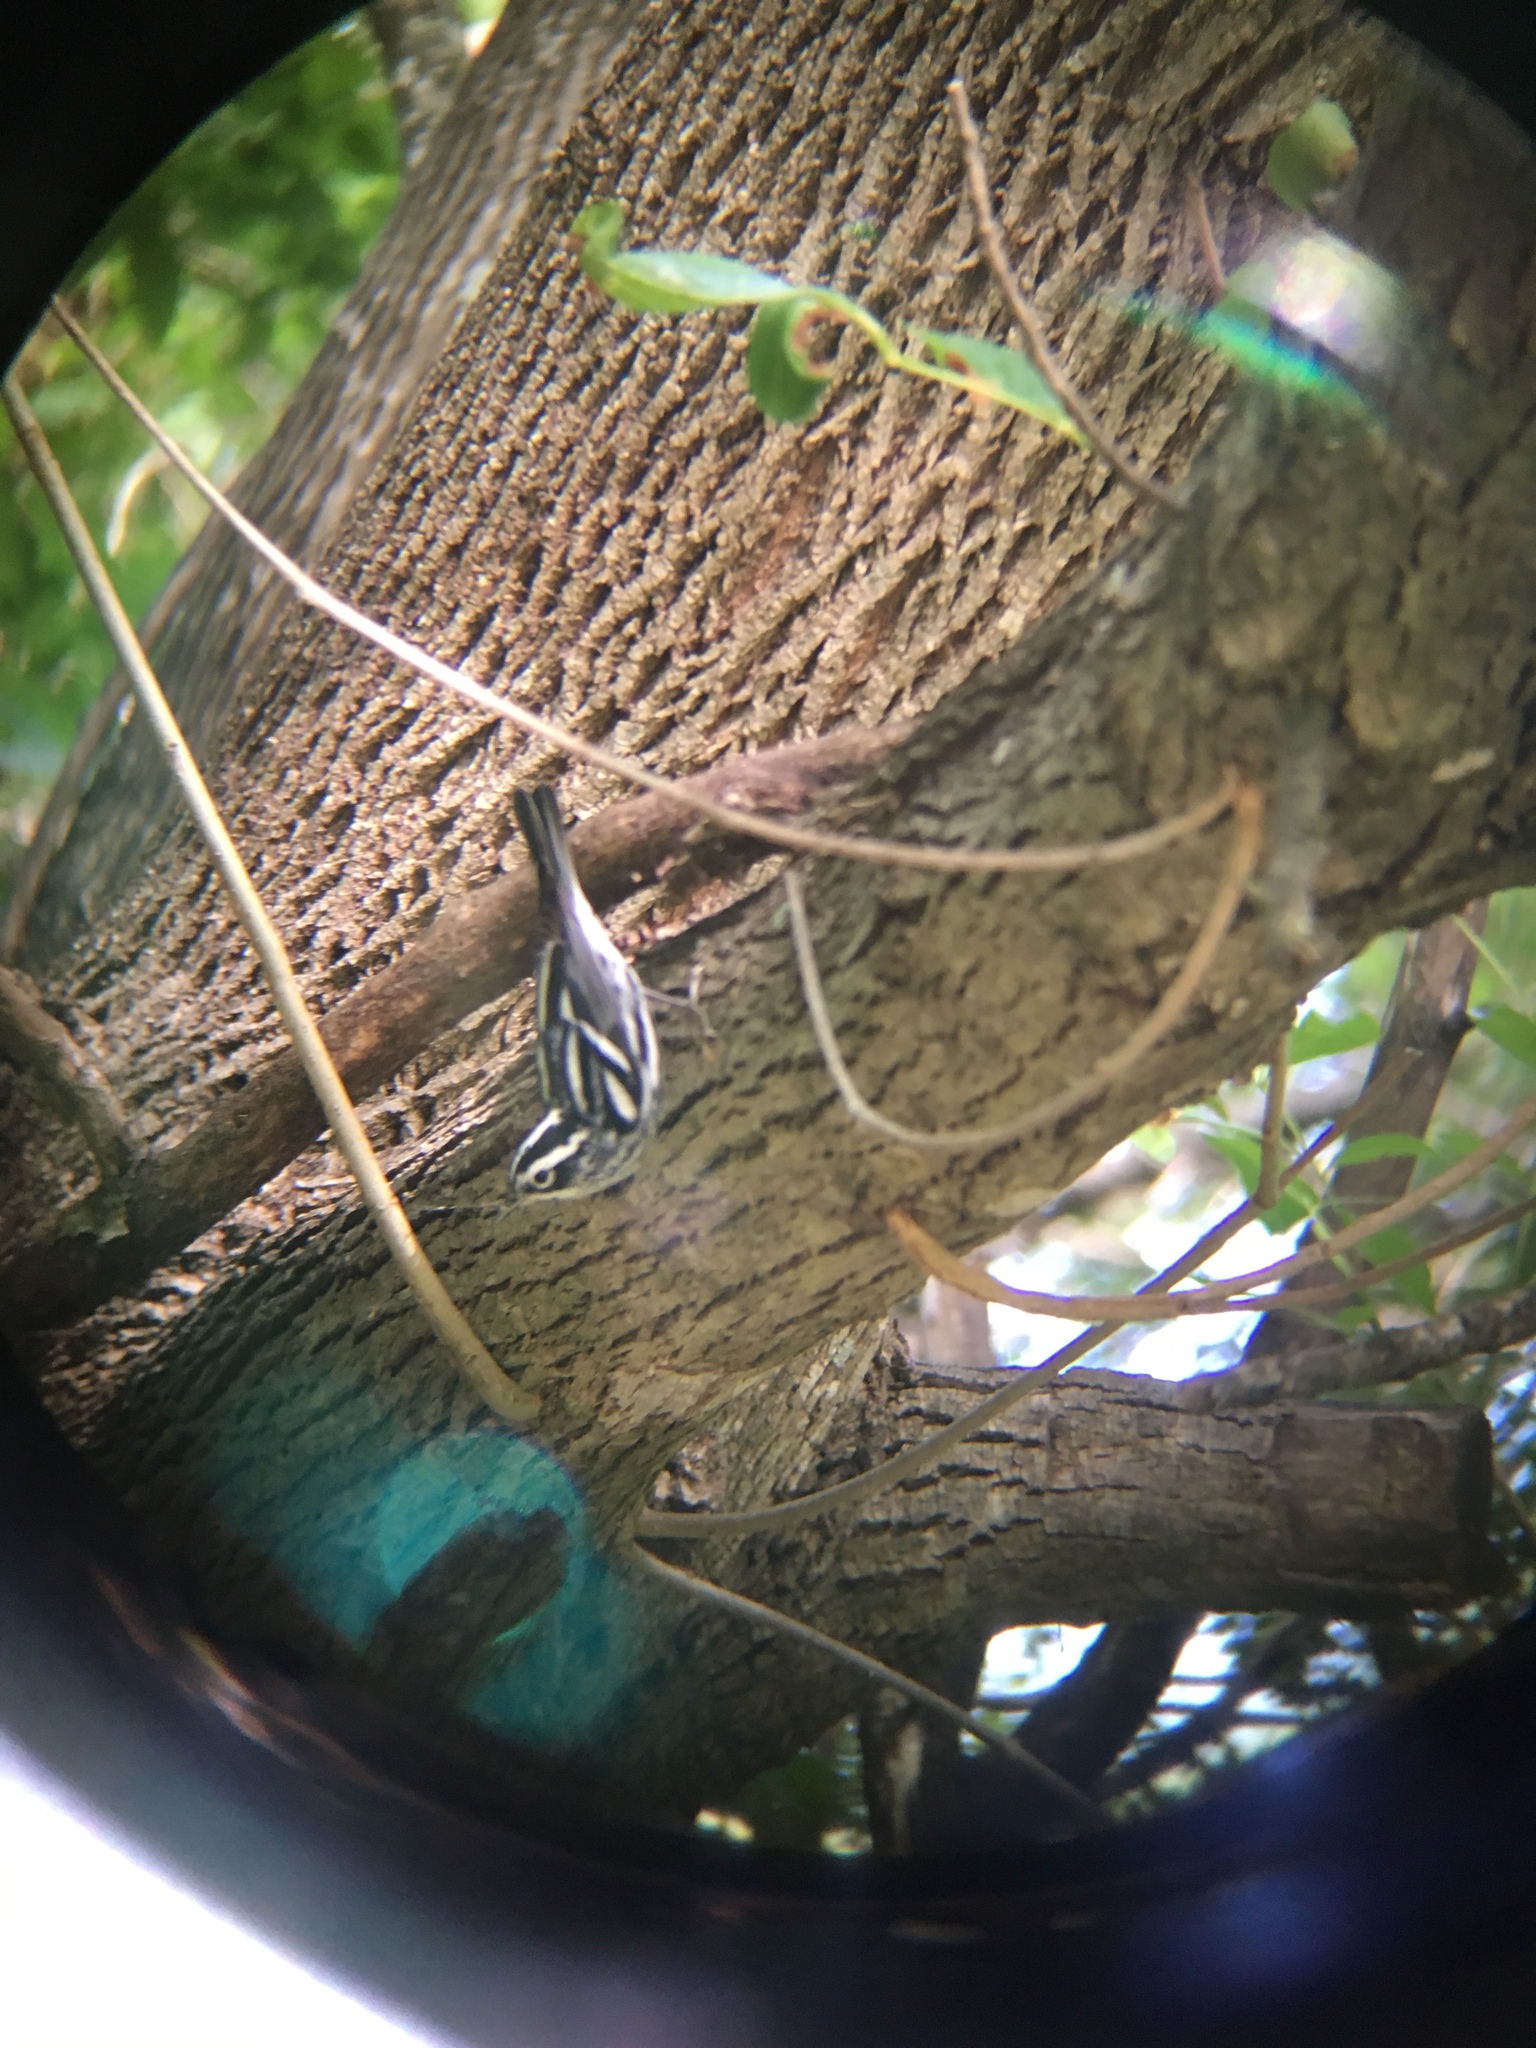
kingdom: Animalia
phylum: Chordata
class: Aves
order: Passeriformes
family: Parulidae
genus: Mniotilta
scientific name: Mniotilta varia
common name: Black-and-white warbler
